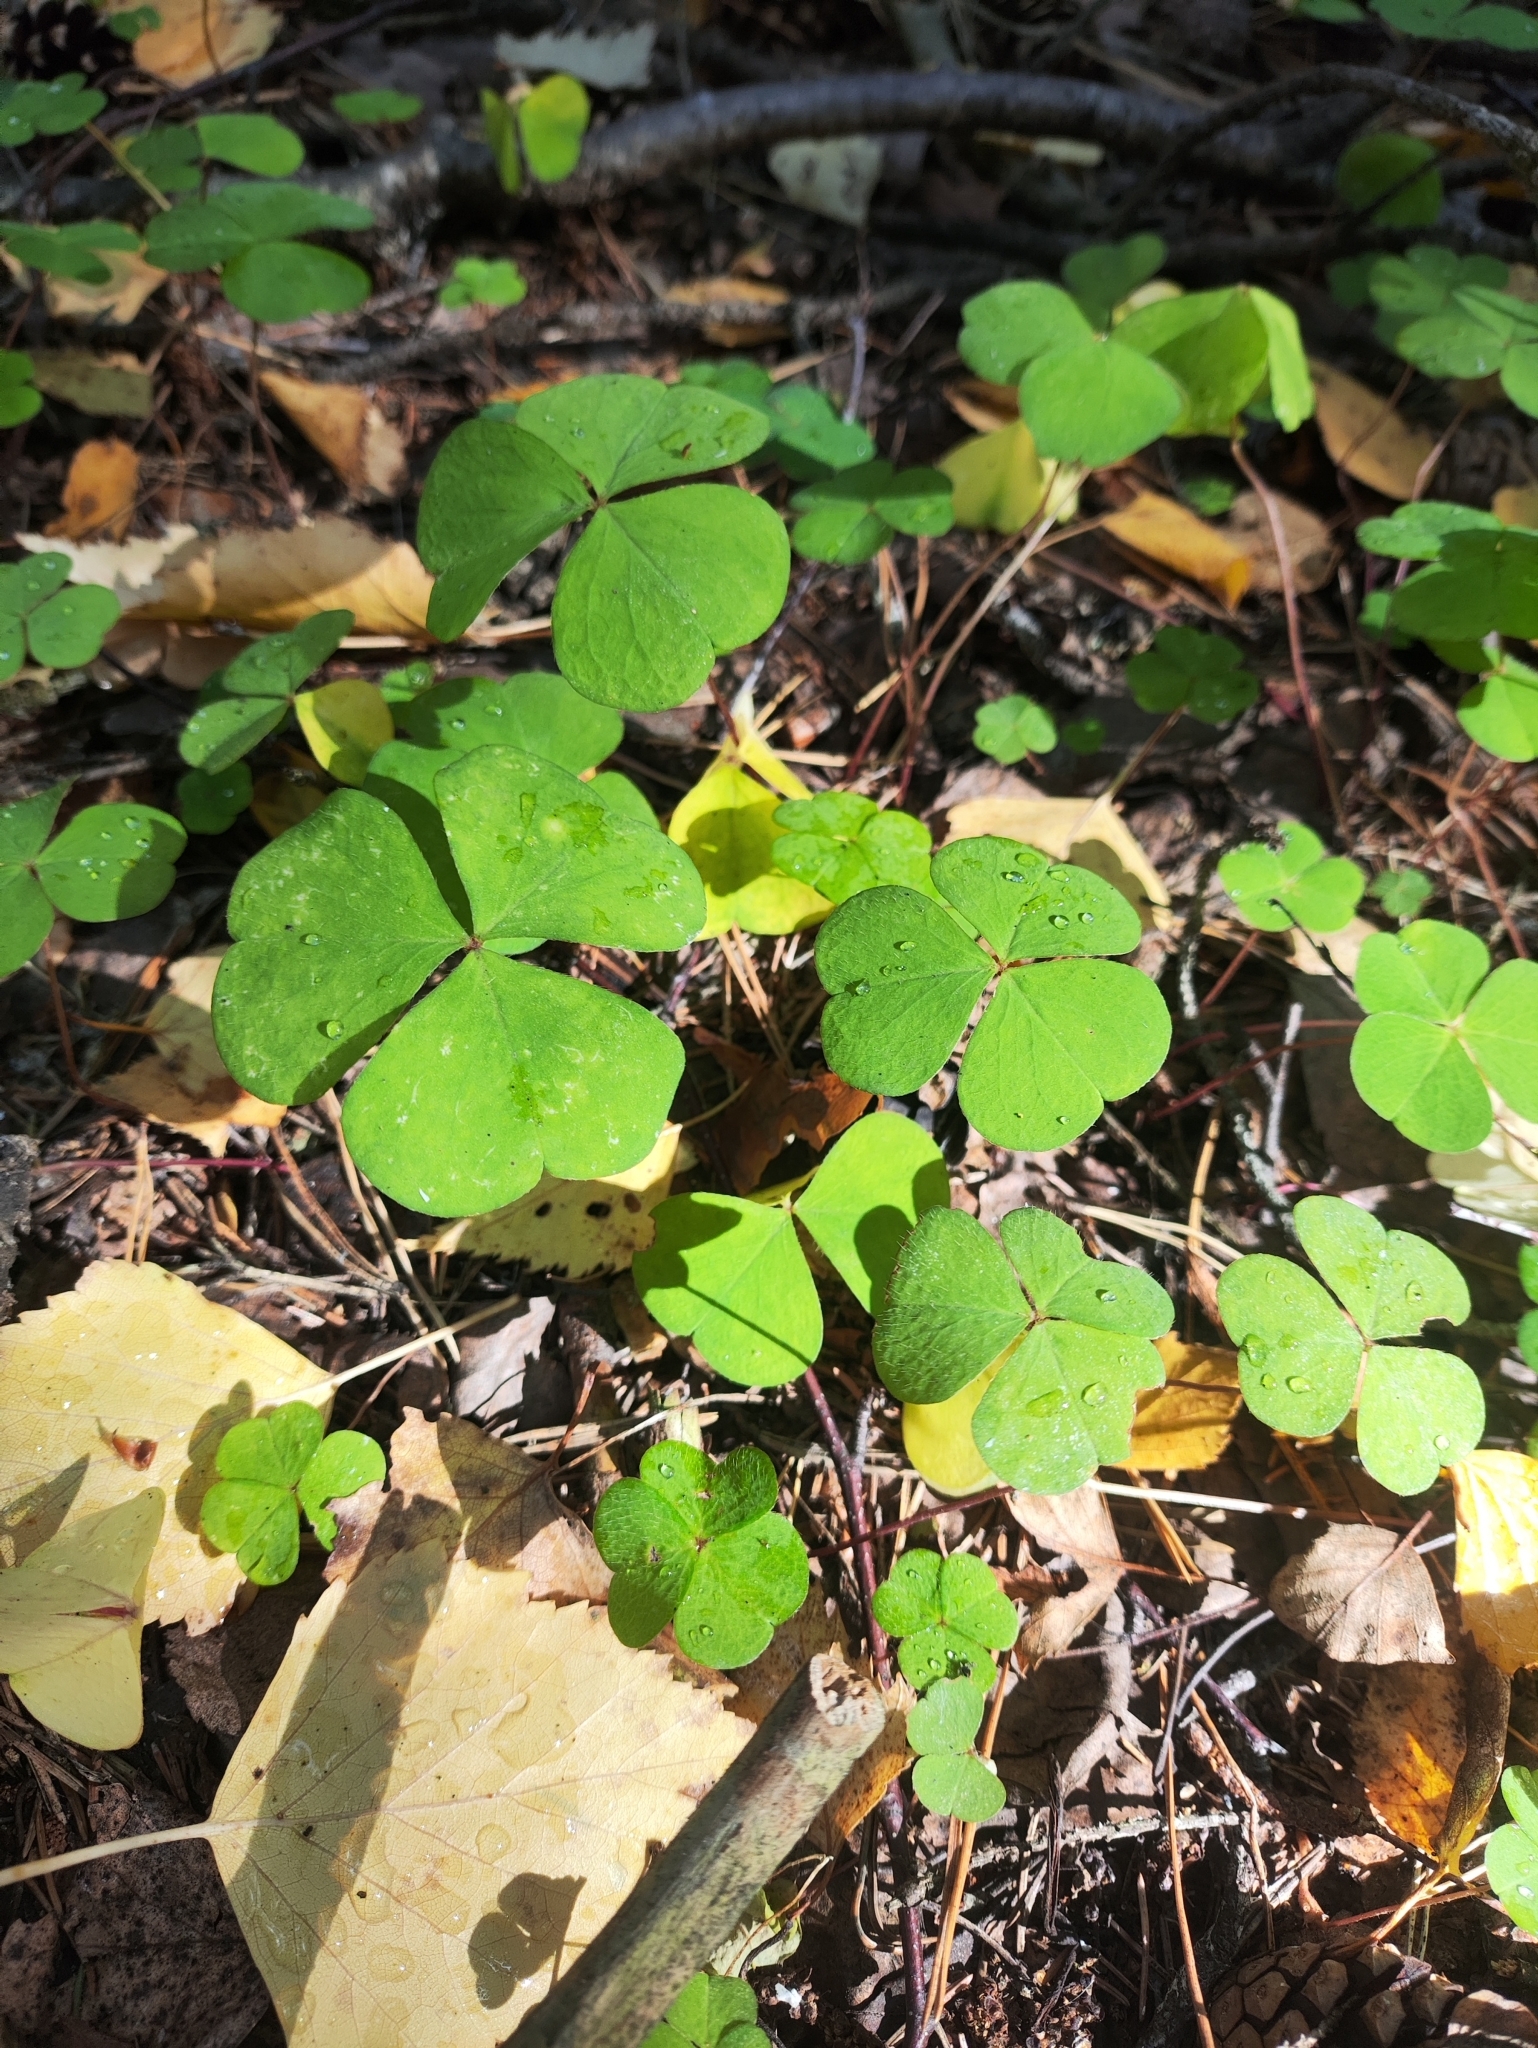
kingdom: Plantae
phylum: Tracheophyta
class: Magnoliopsida
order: Oxalidales
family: Oxalidaceae
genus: Oxalis
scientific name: Oxalis acetosella
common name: Wood-sorrel
